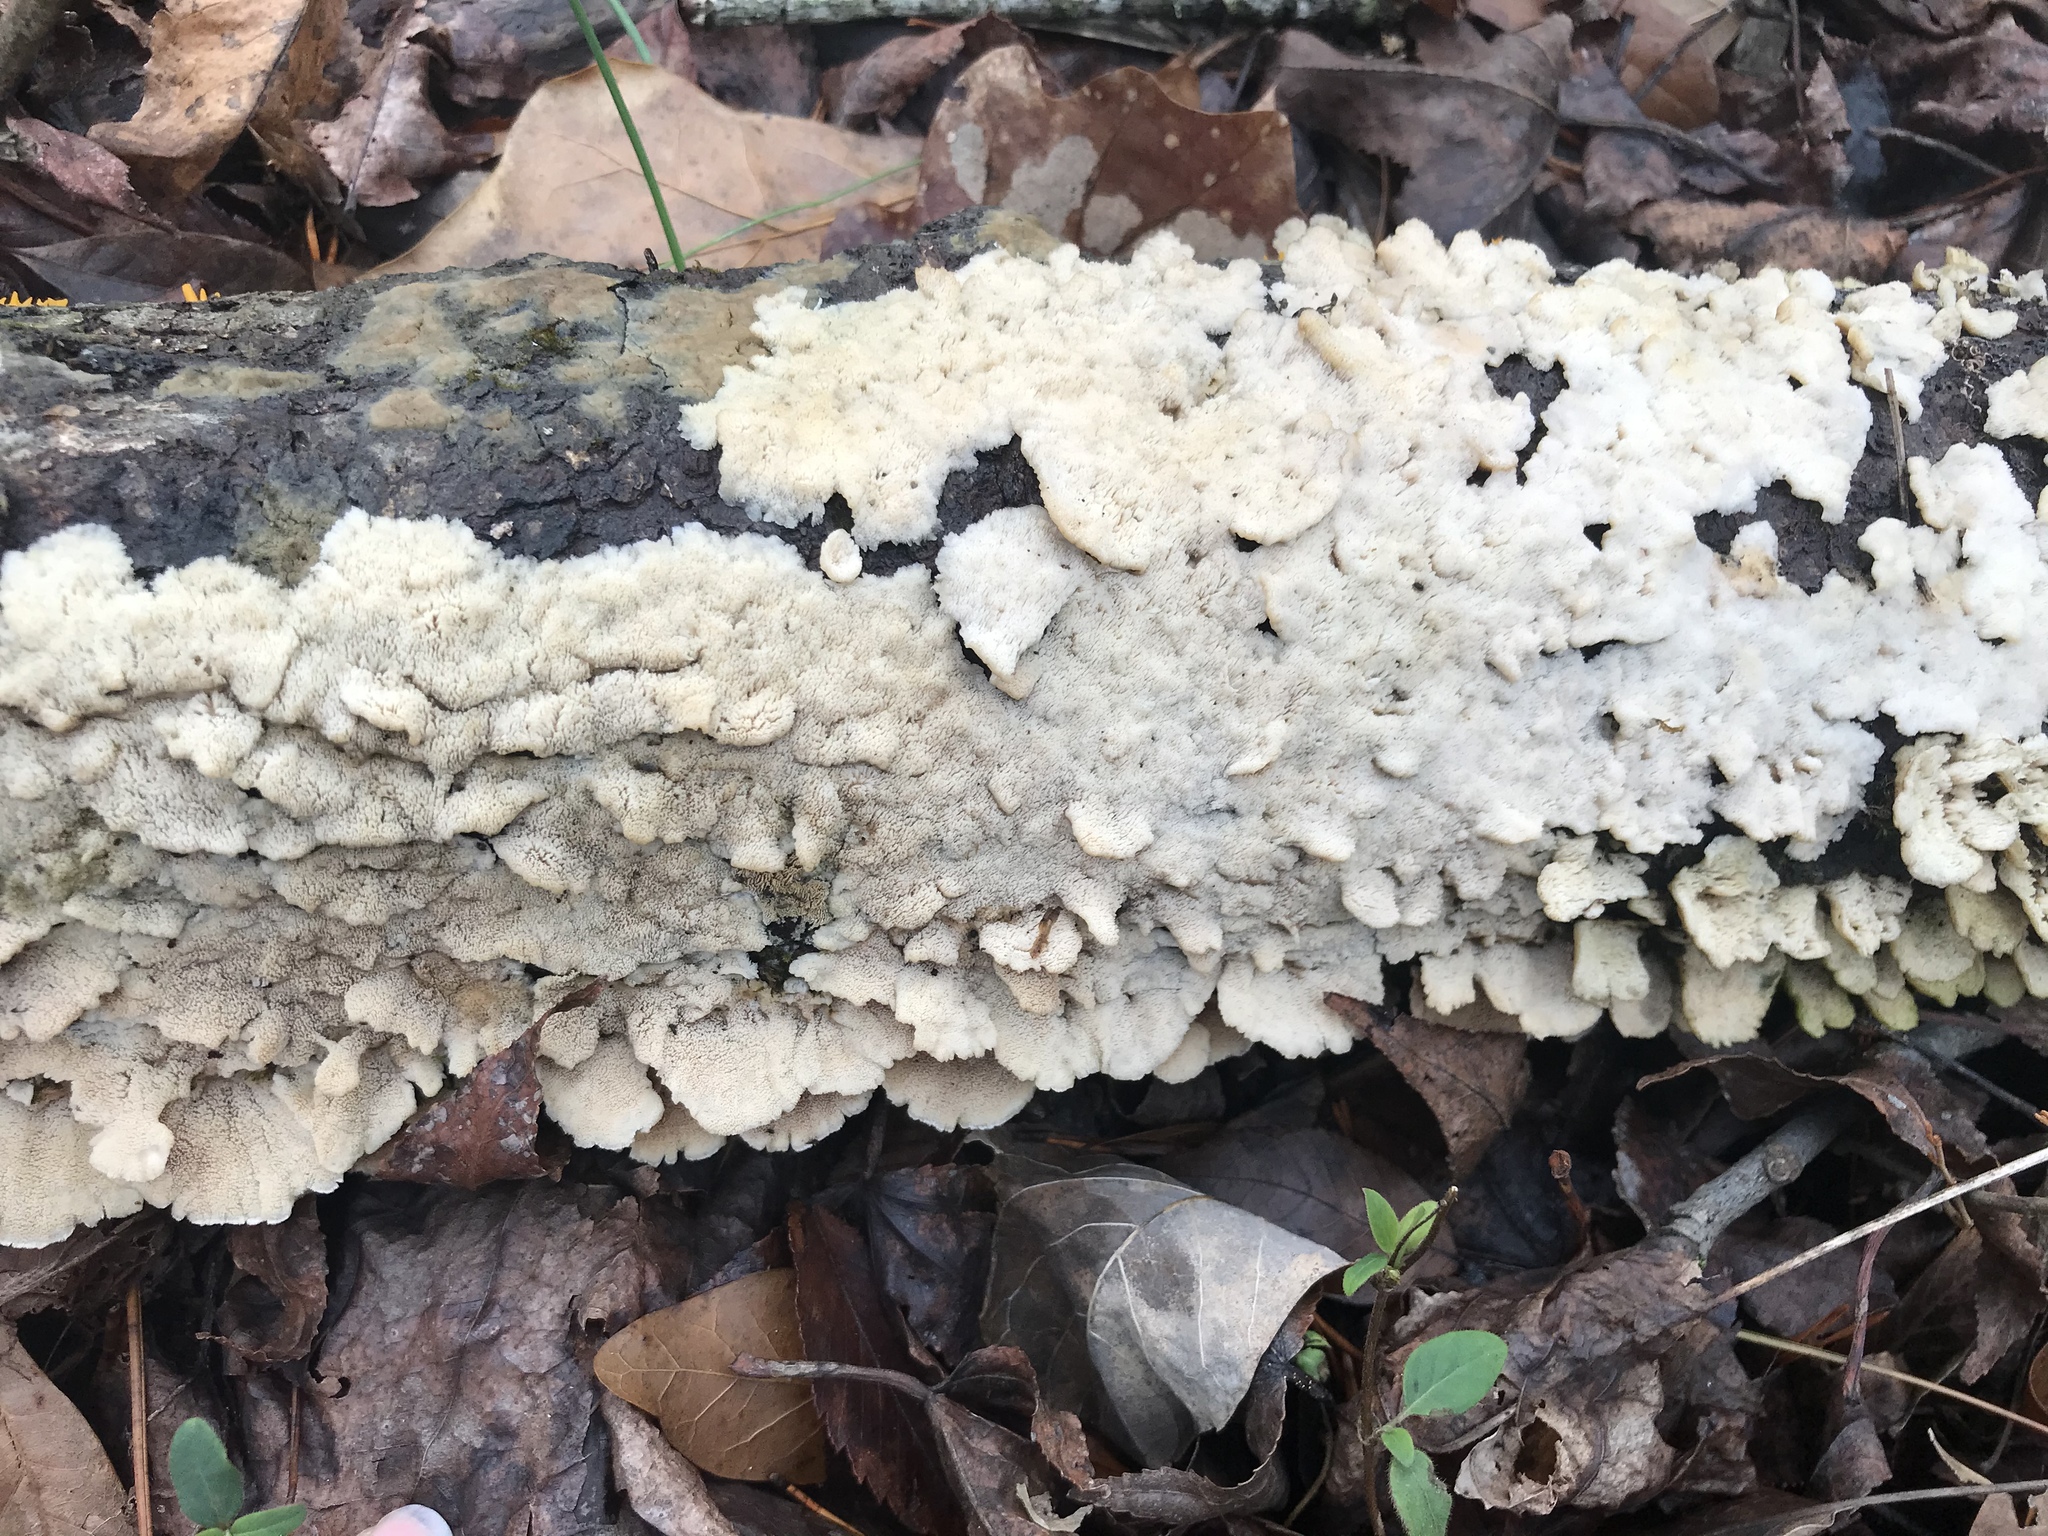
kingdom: Fungi
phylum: Basidiomycota
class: Agaricomycetes
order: Polyporales
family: Irpicaceae
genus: Irpex
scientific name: Irpex lacteus
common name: Milk-white toothed polypore
